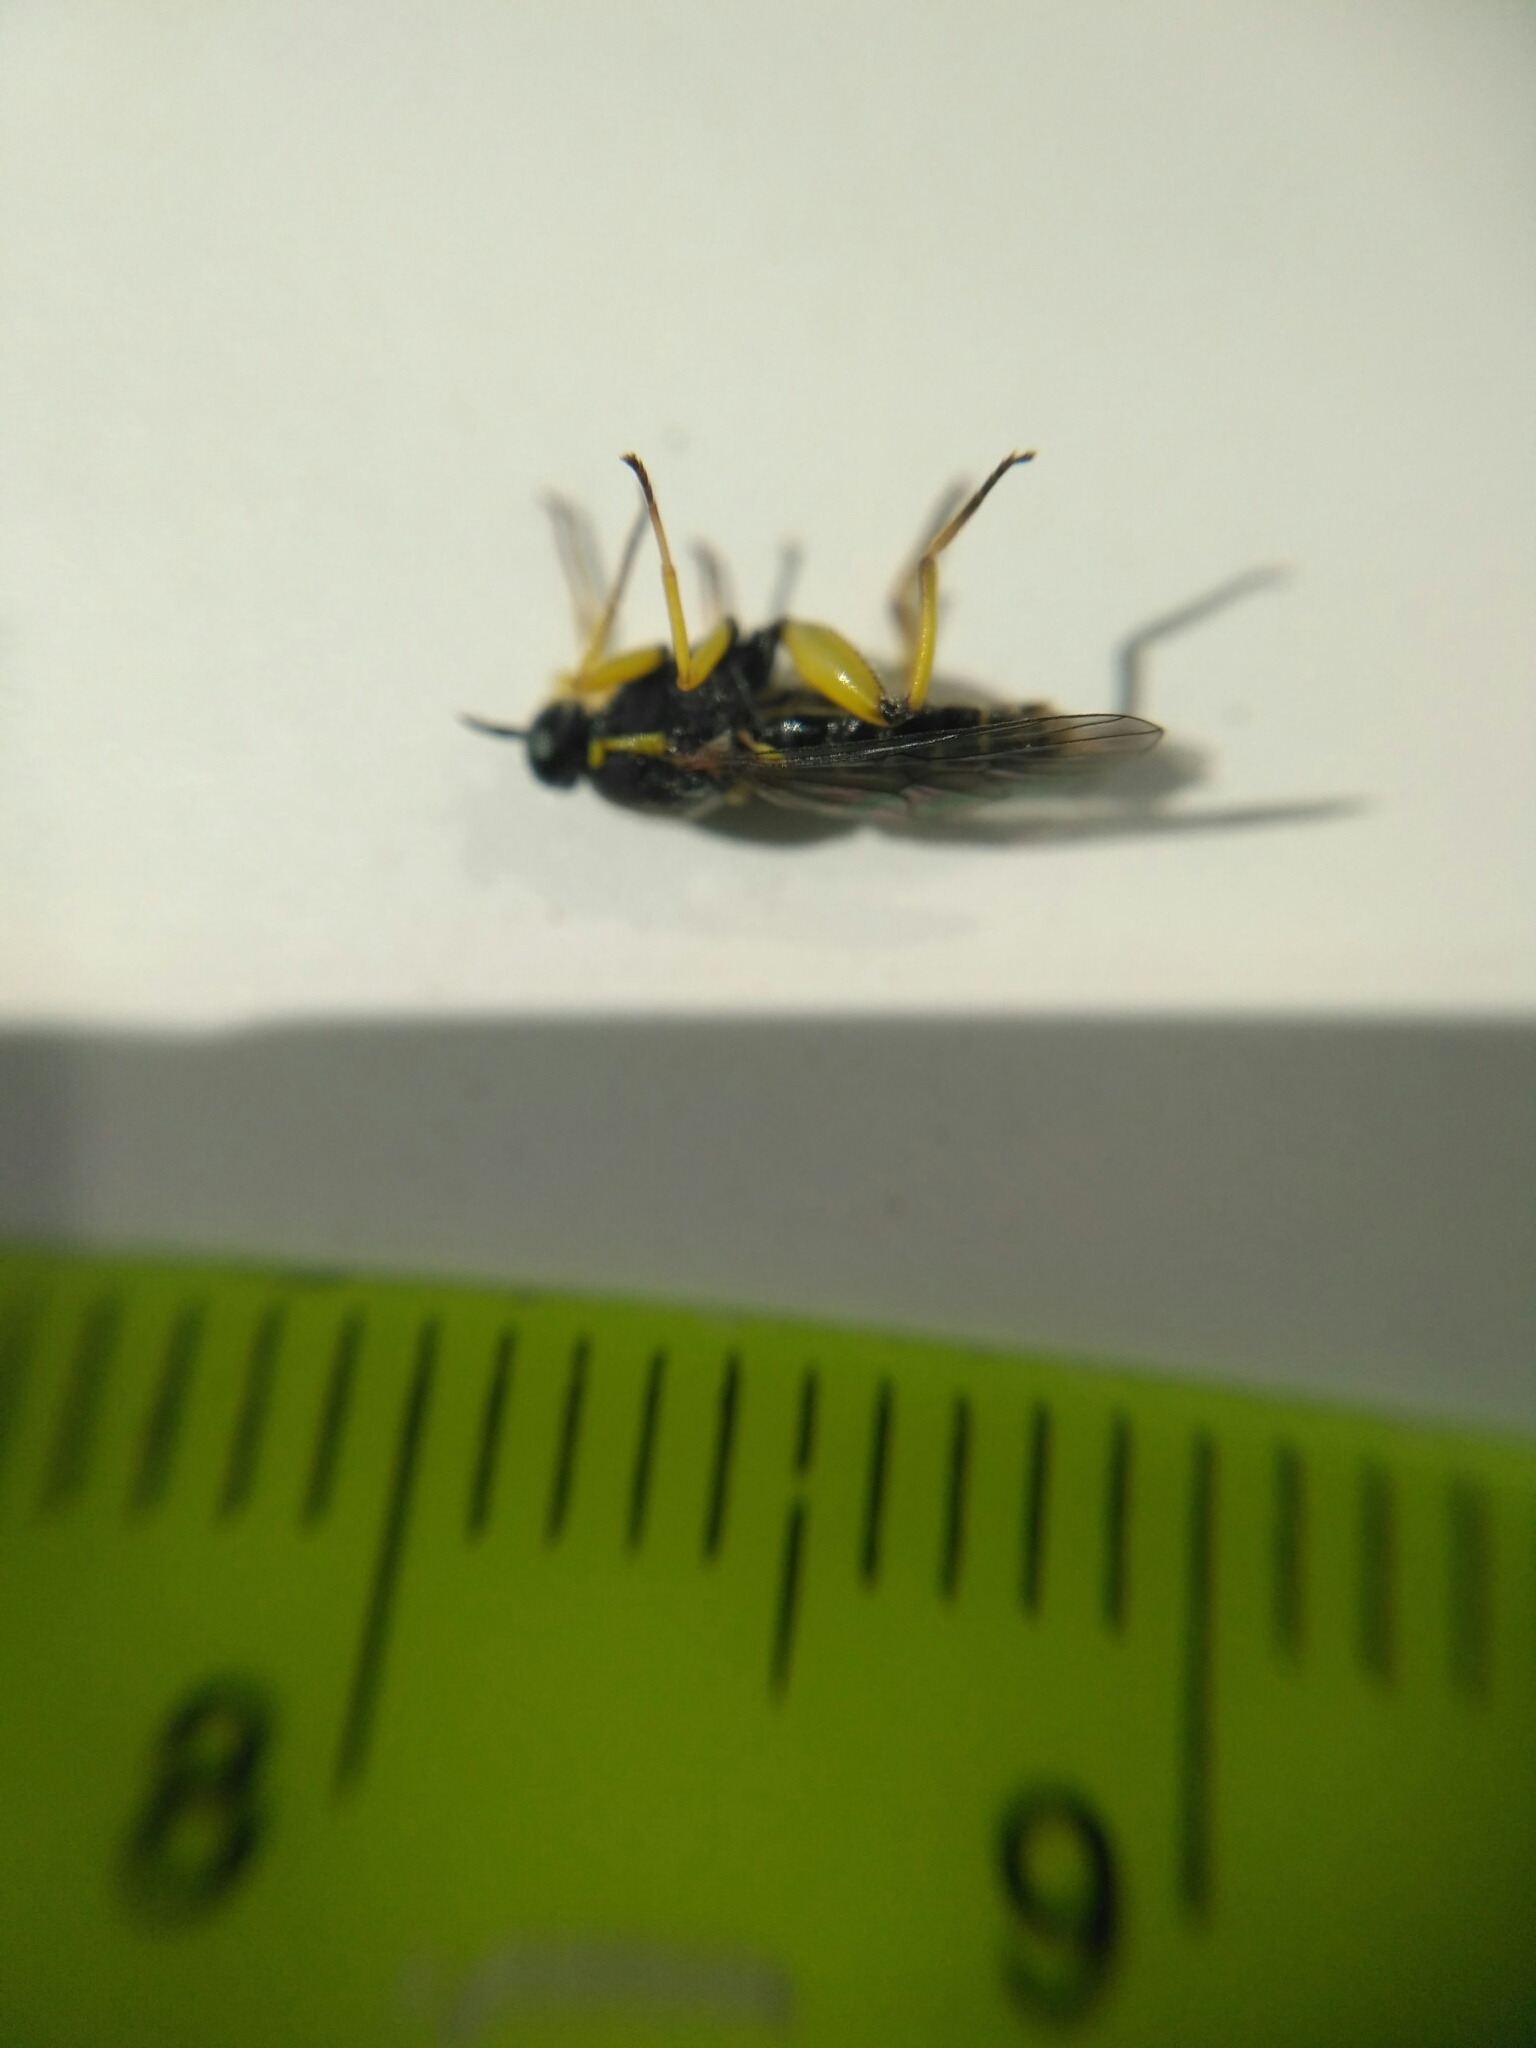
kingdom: Animalia
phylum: Arthropoda
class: Insecta
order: Diptera
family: Xylomyidae
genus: Solva
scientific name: Solva marginata
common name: Drab wood-soldierfly
